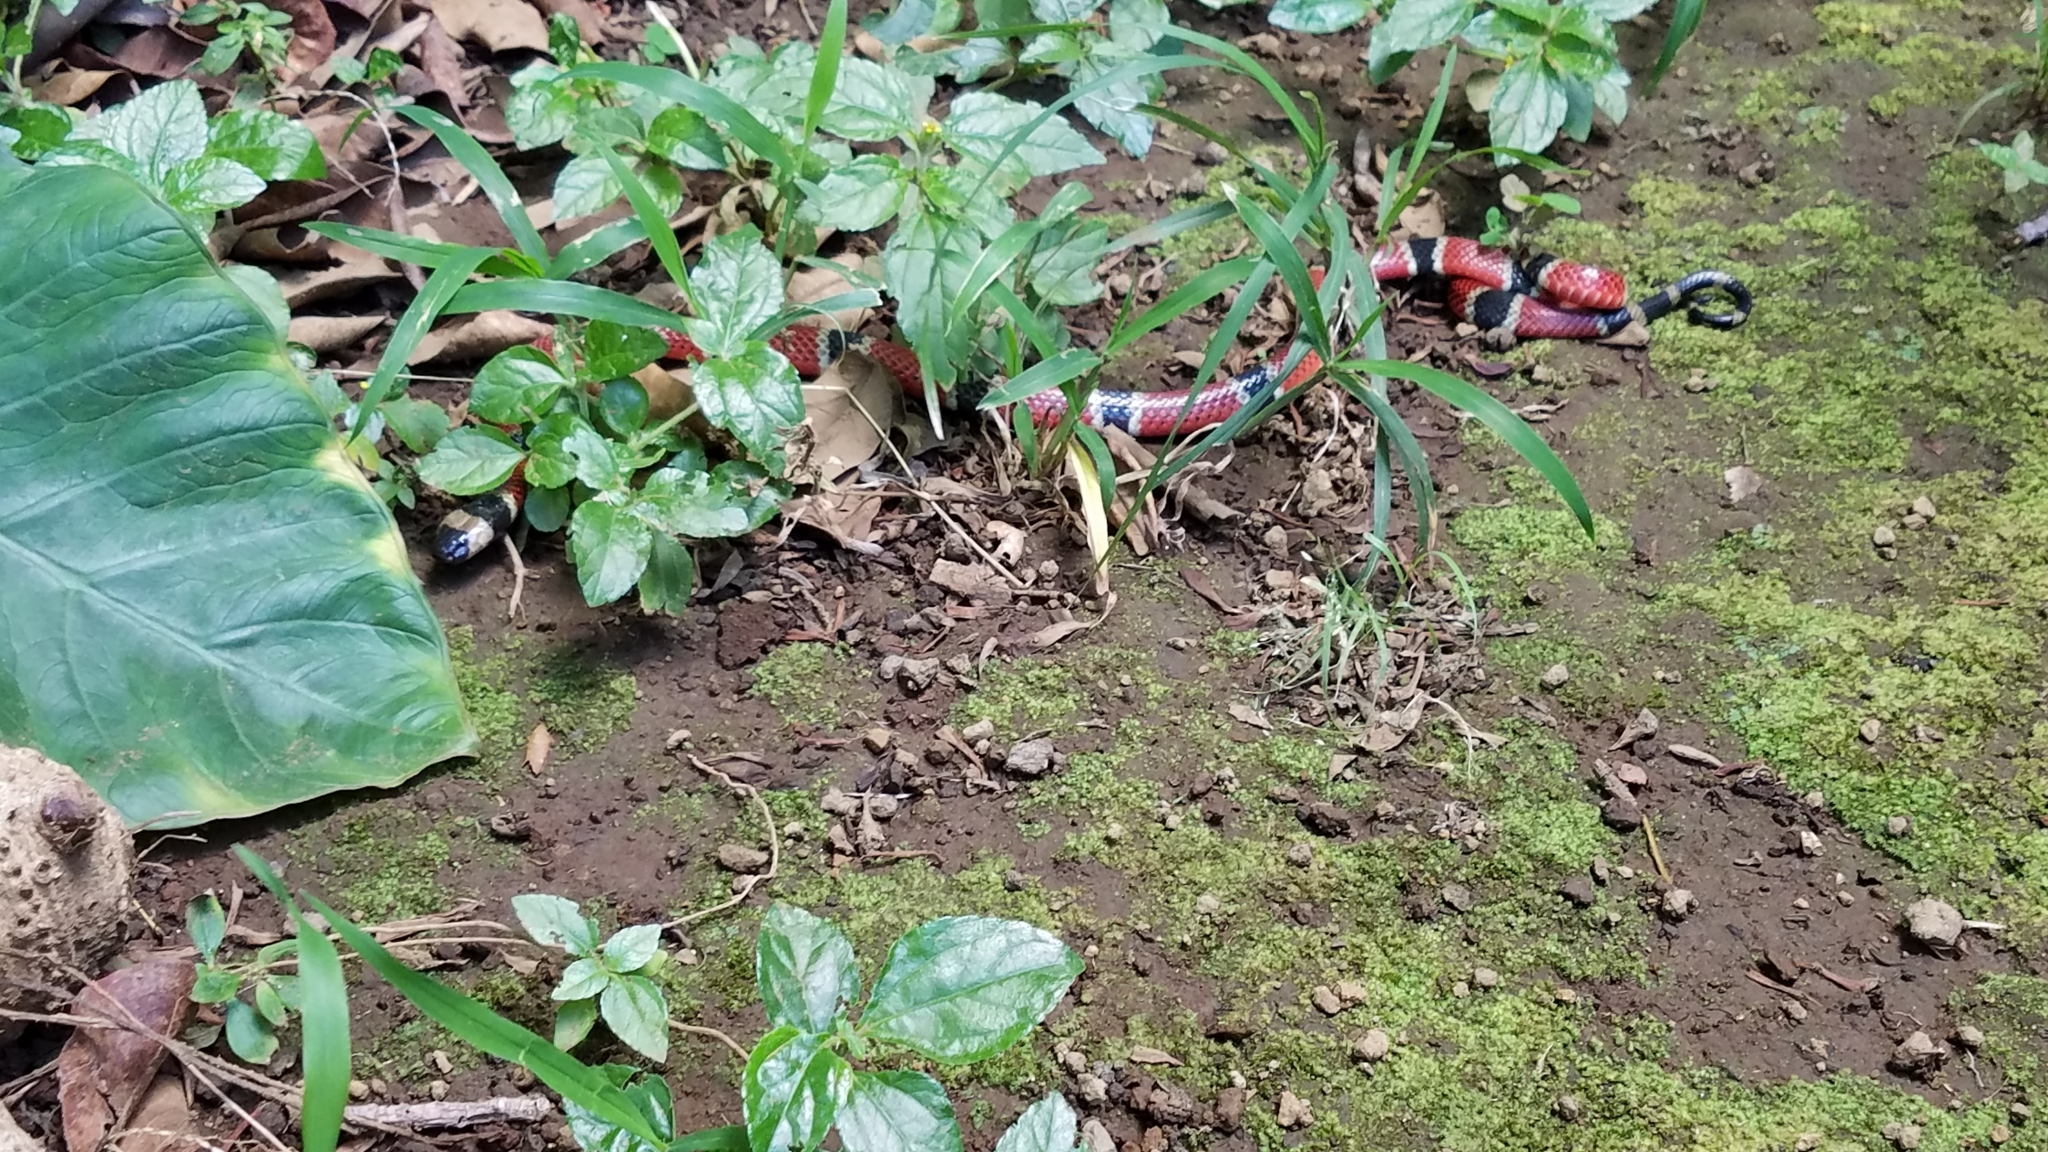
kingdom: Animalia
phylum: Chordata
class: Squamata
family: Elapidae
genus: Micrurus
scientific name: Micrurus nigrocinctus
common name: Babaspul [babaspul]
